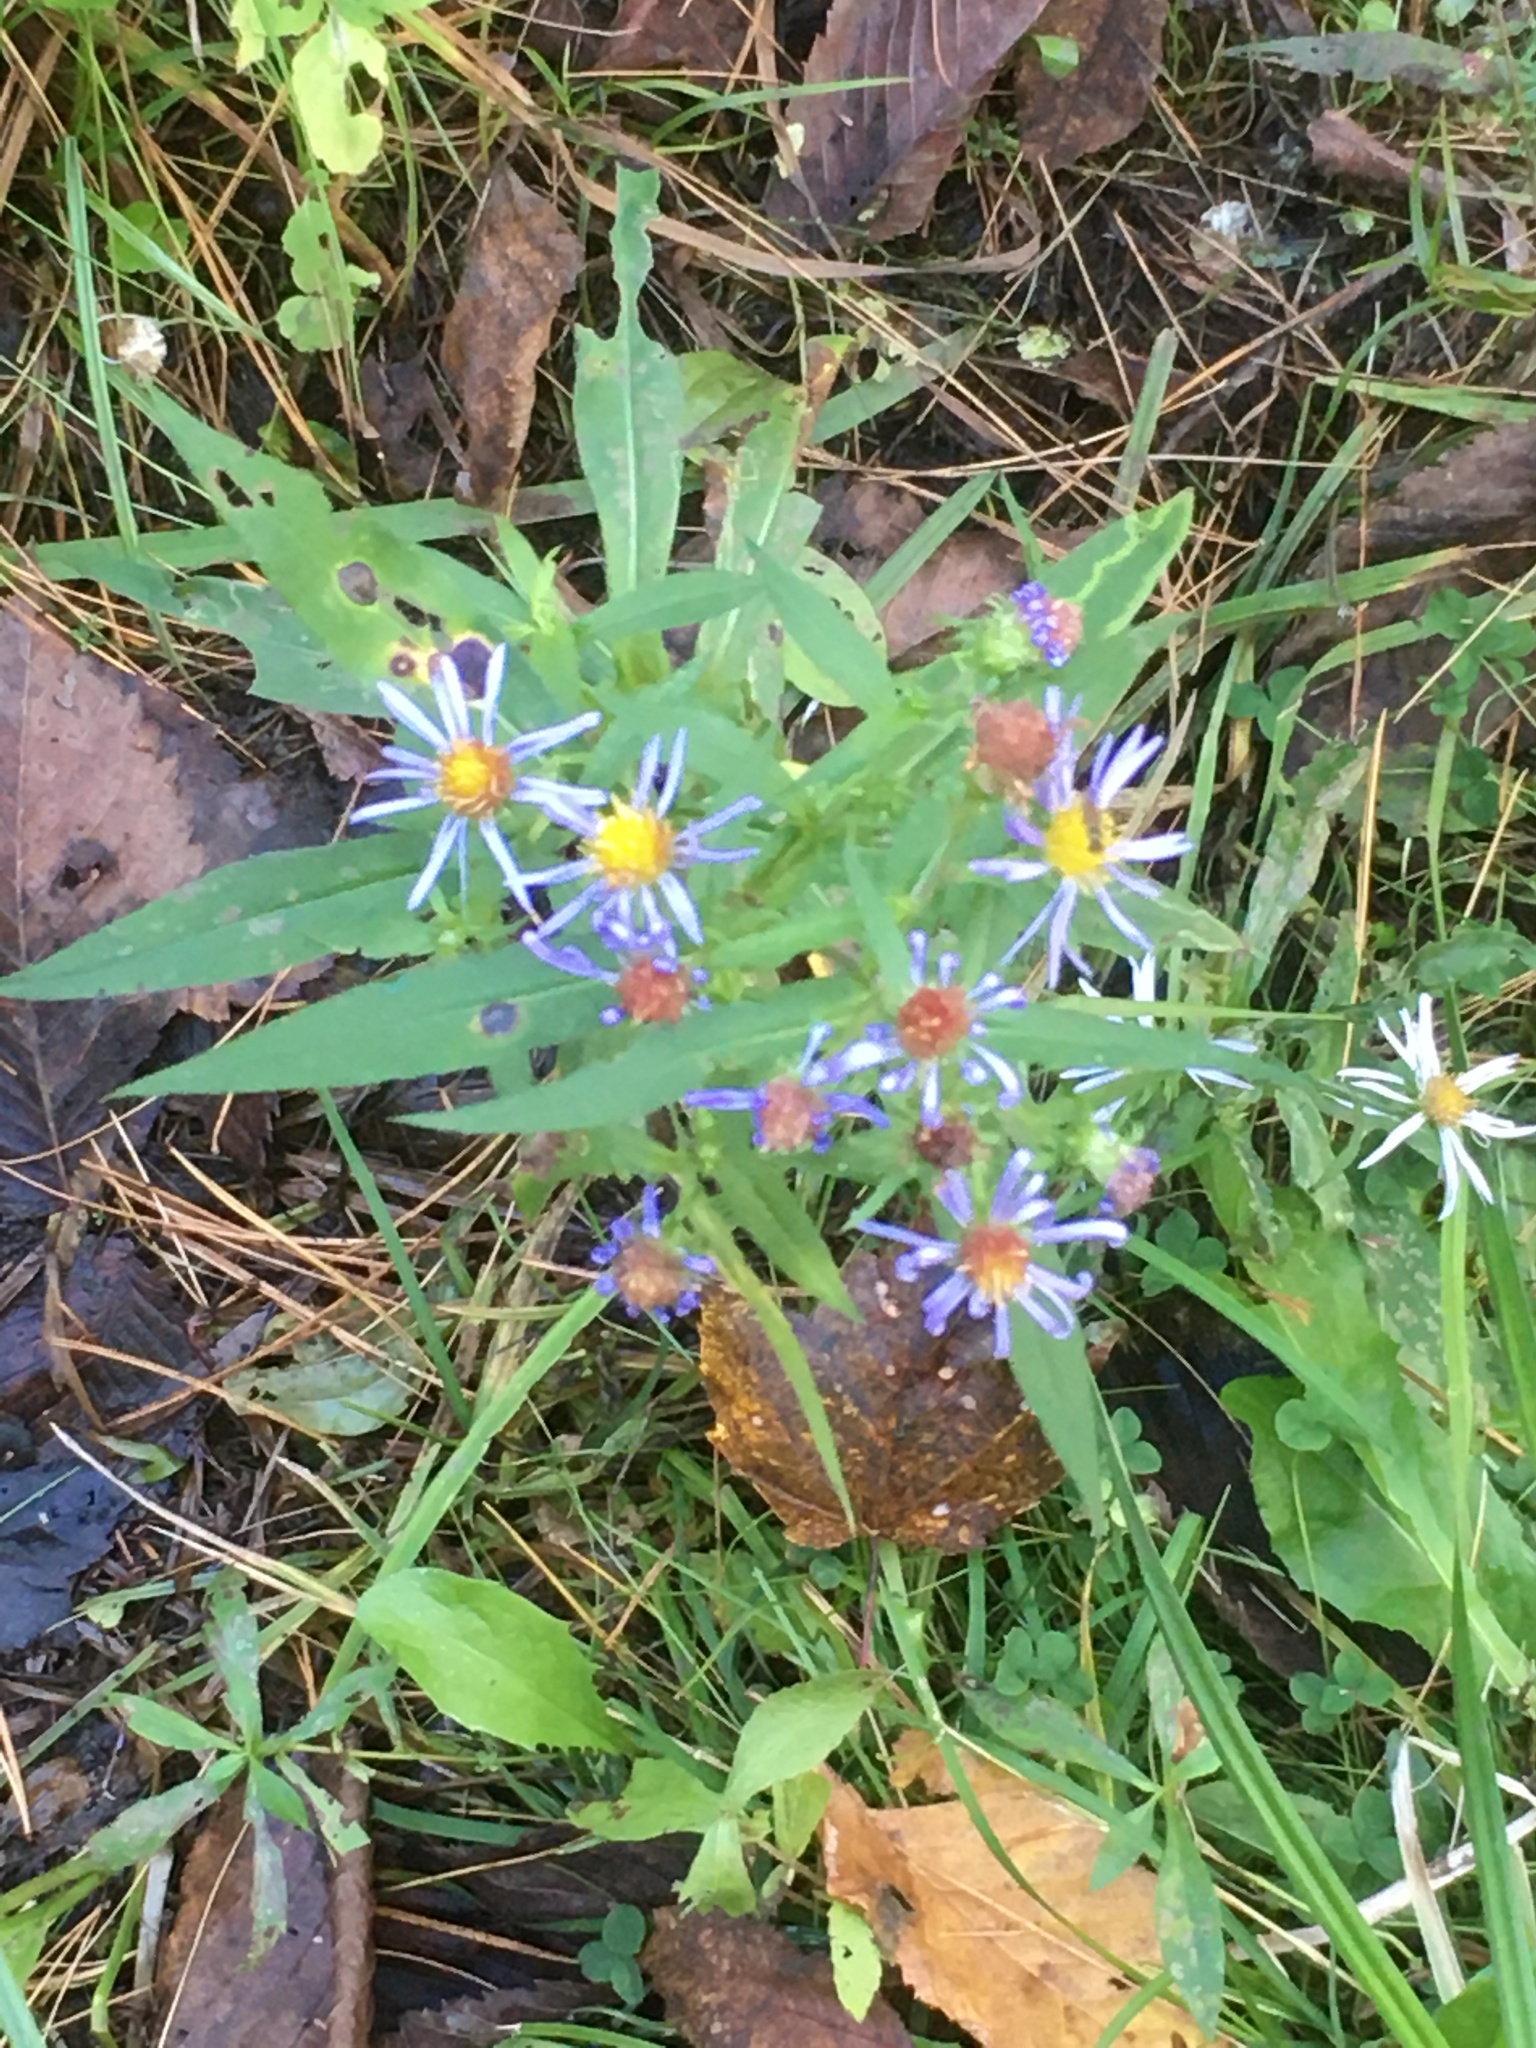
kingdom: Plantae
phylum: Tracheophyta
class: Magnoliopsida
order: Asterales
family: Asteraceae
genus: Symphyotrichum
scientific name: Symphyotrichum puniceum
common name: Bog aster
